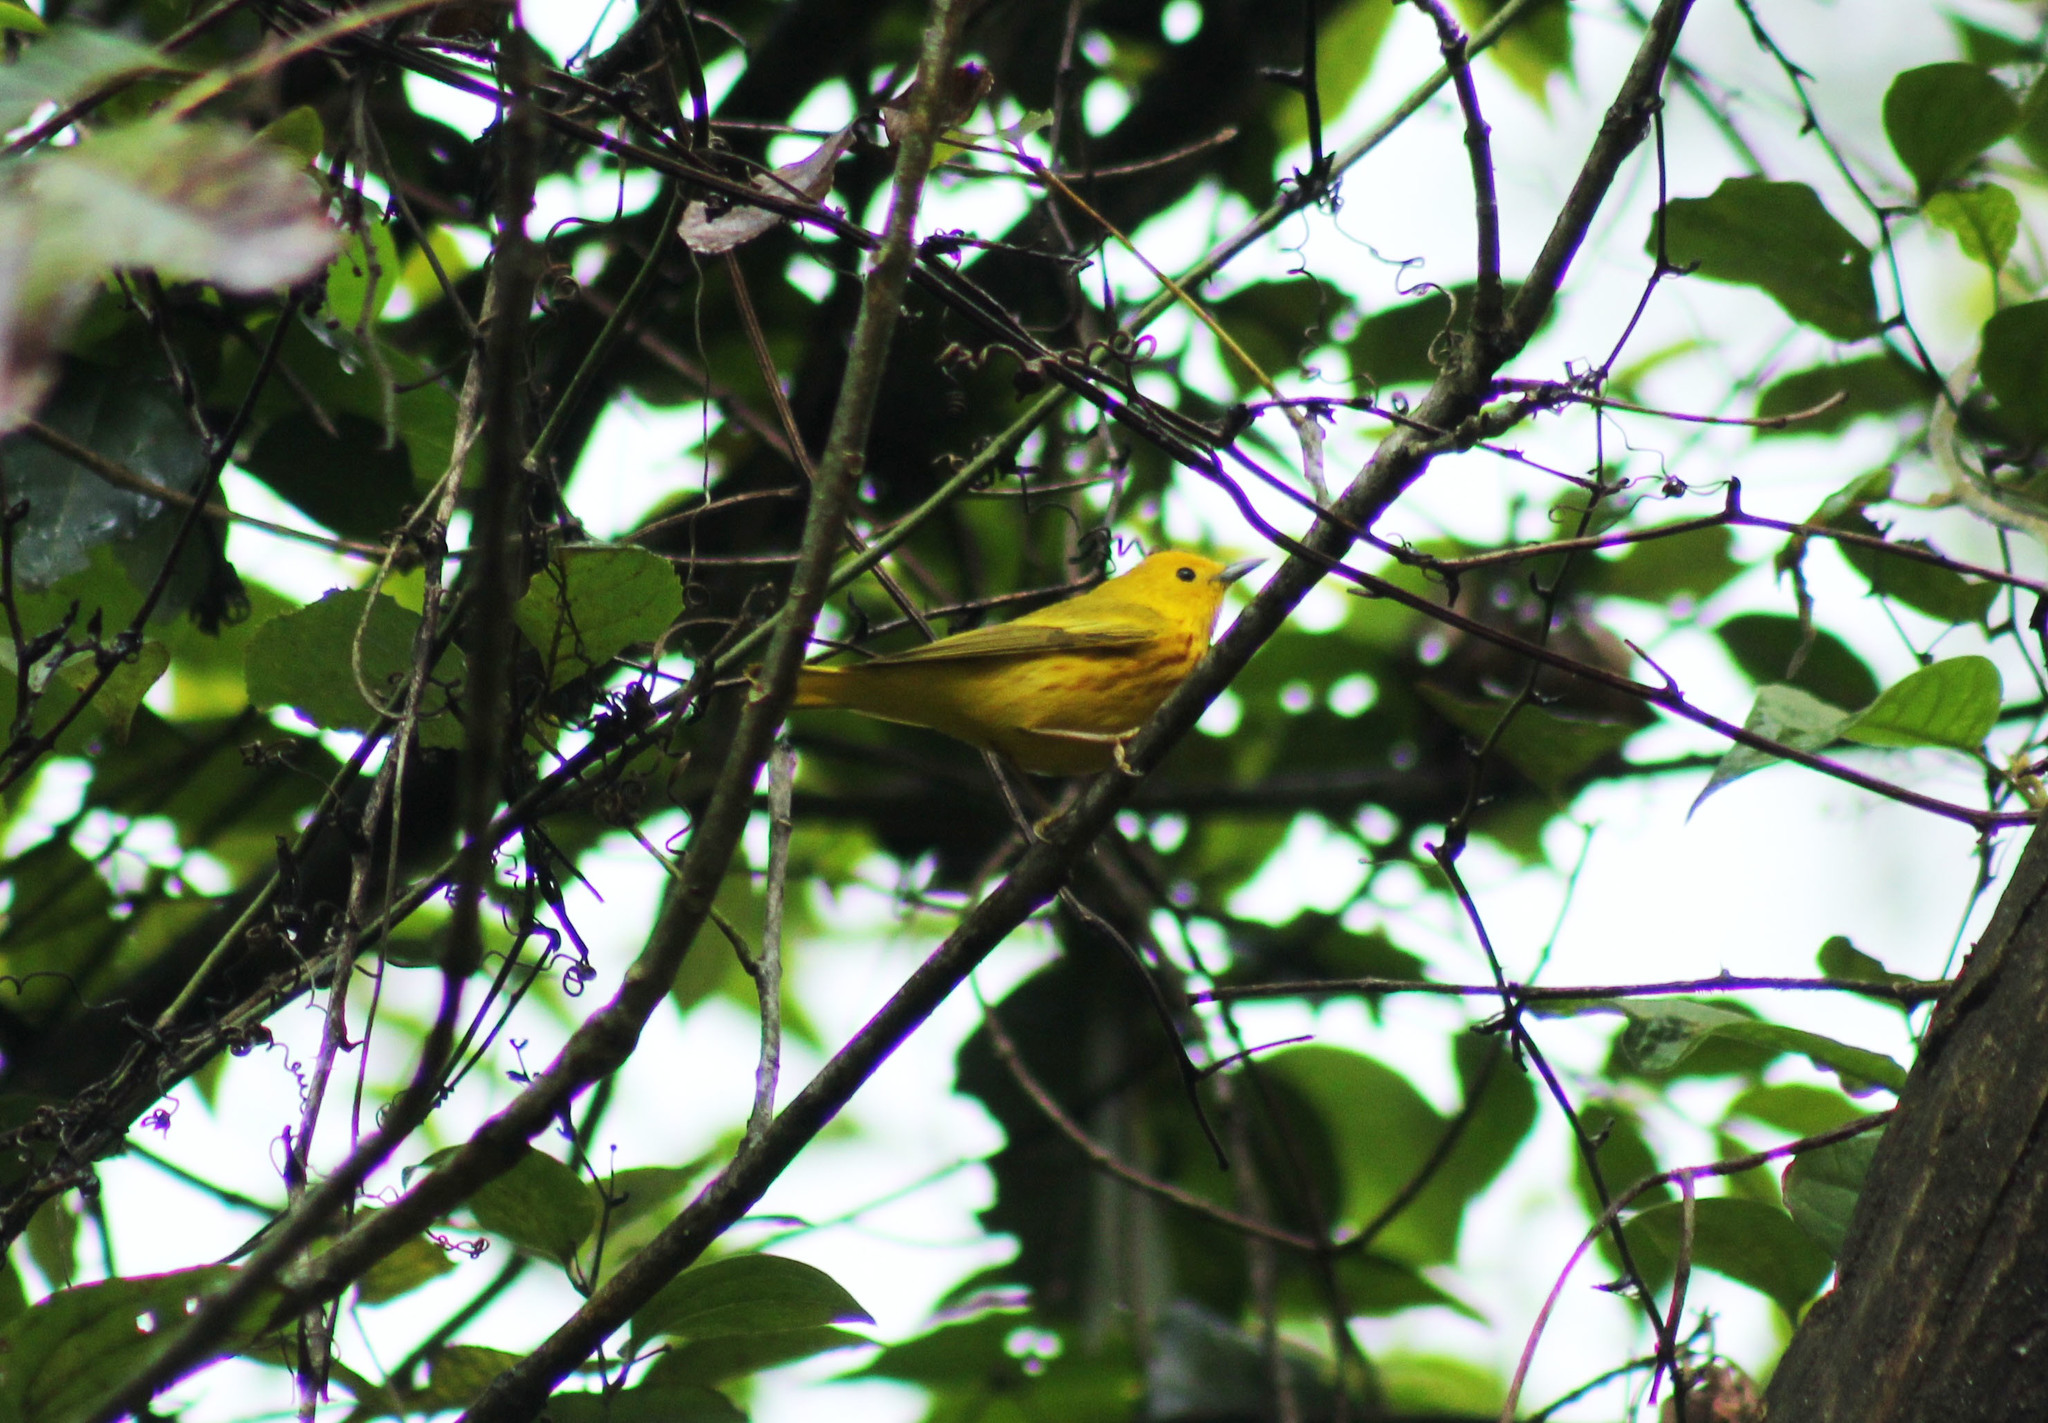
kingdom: Animalia
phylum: Chordata
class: Aves
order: Passeriformes
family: Parulidae
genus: Setophaga
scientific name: Setophaga petechia
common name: Yellow warbler
